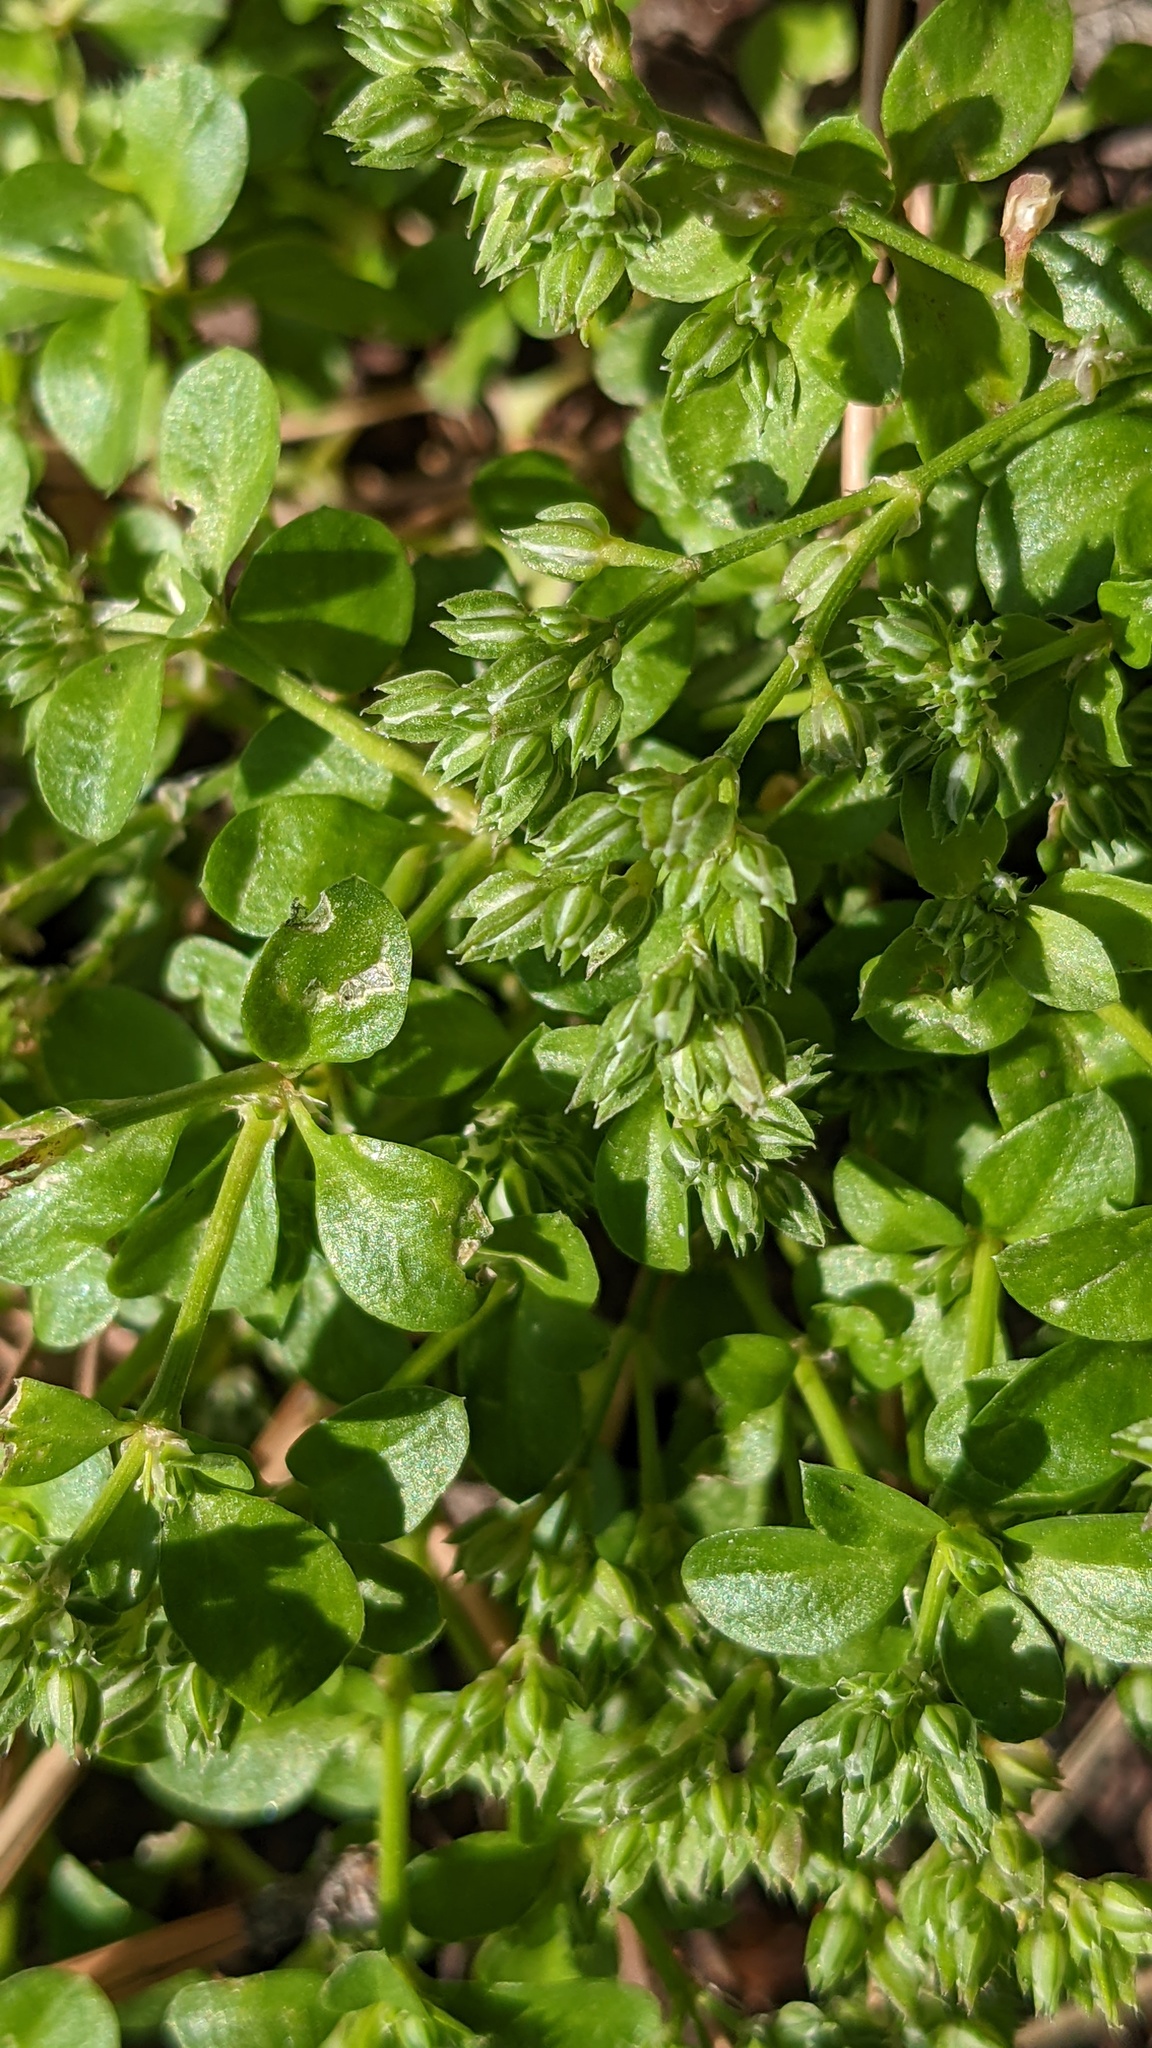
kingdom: Plantae
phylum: Tracheophyta
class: Magnoliopsida
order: Caryophyllales
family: Caryophyllaceae
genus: Polycarpon
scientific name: Polycarpon tetraphyllum
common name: Four-leaved all-seed
